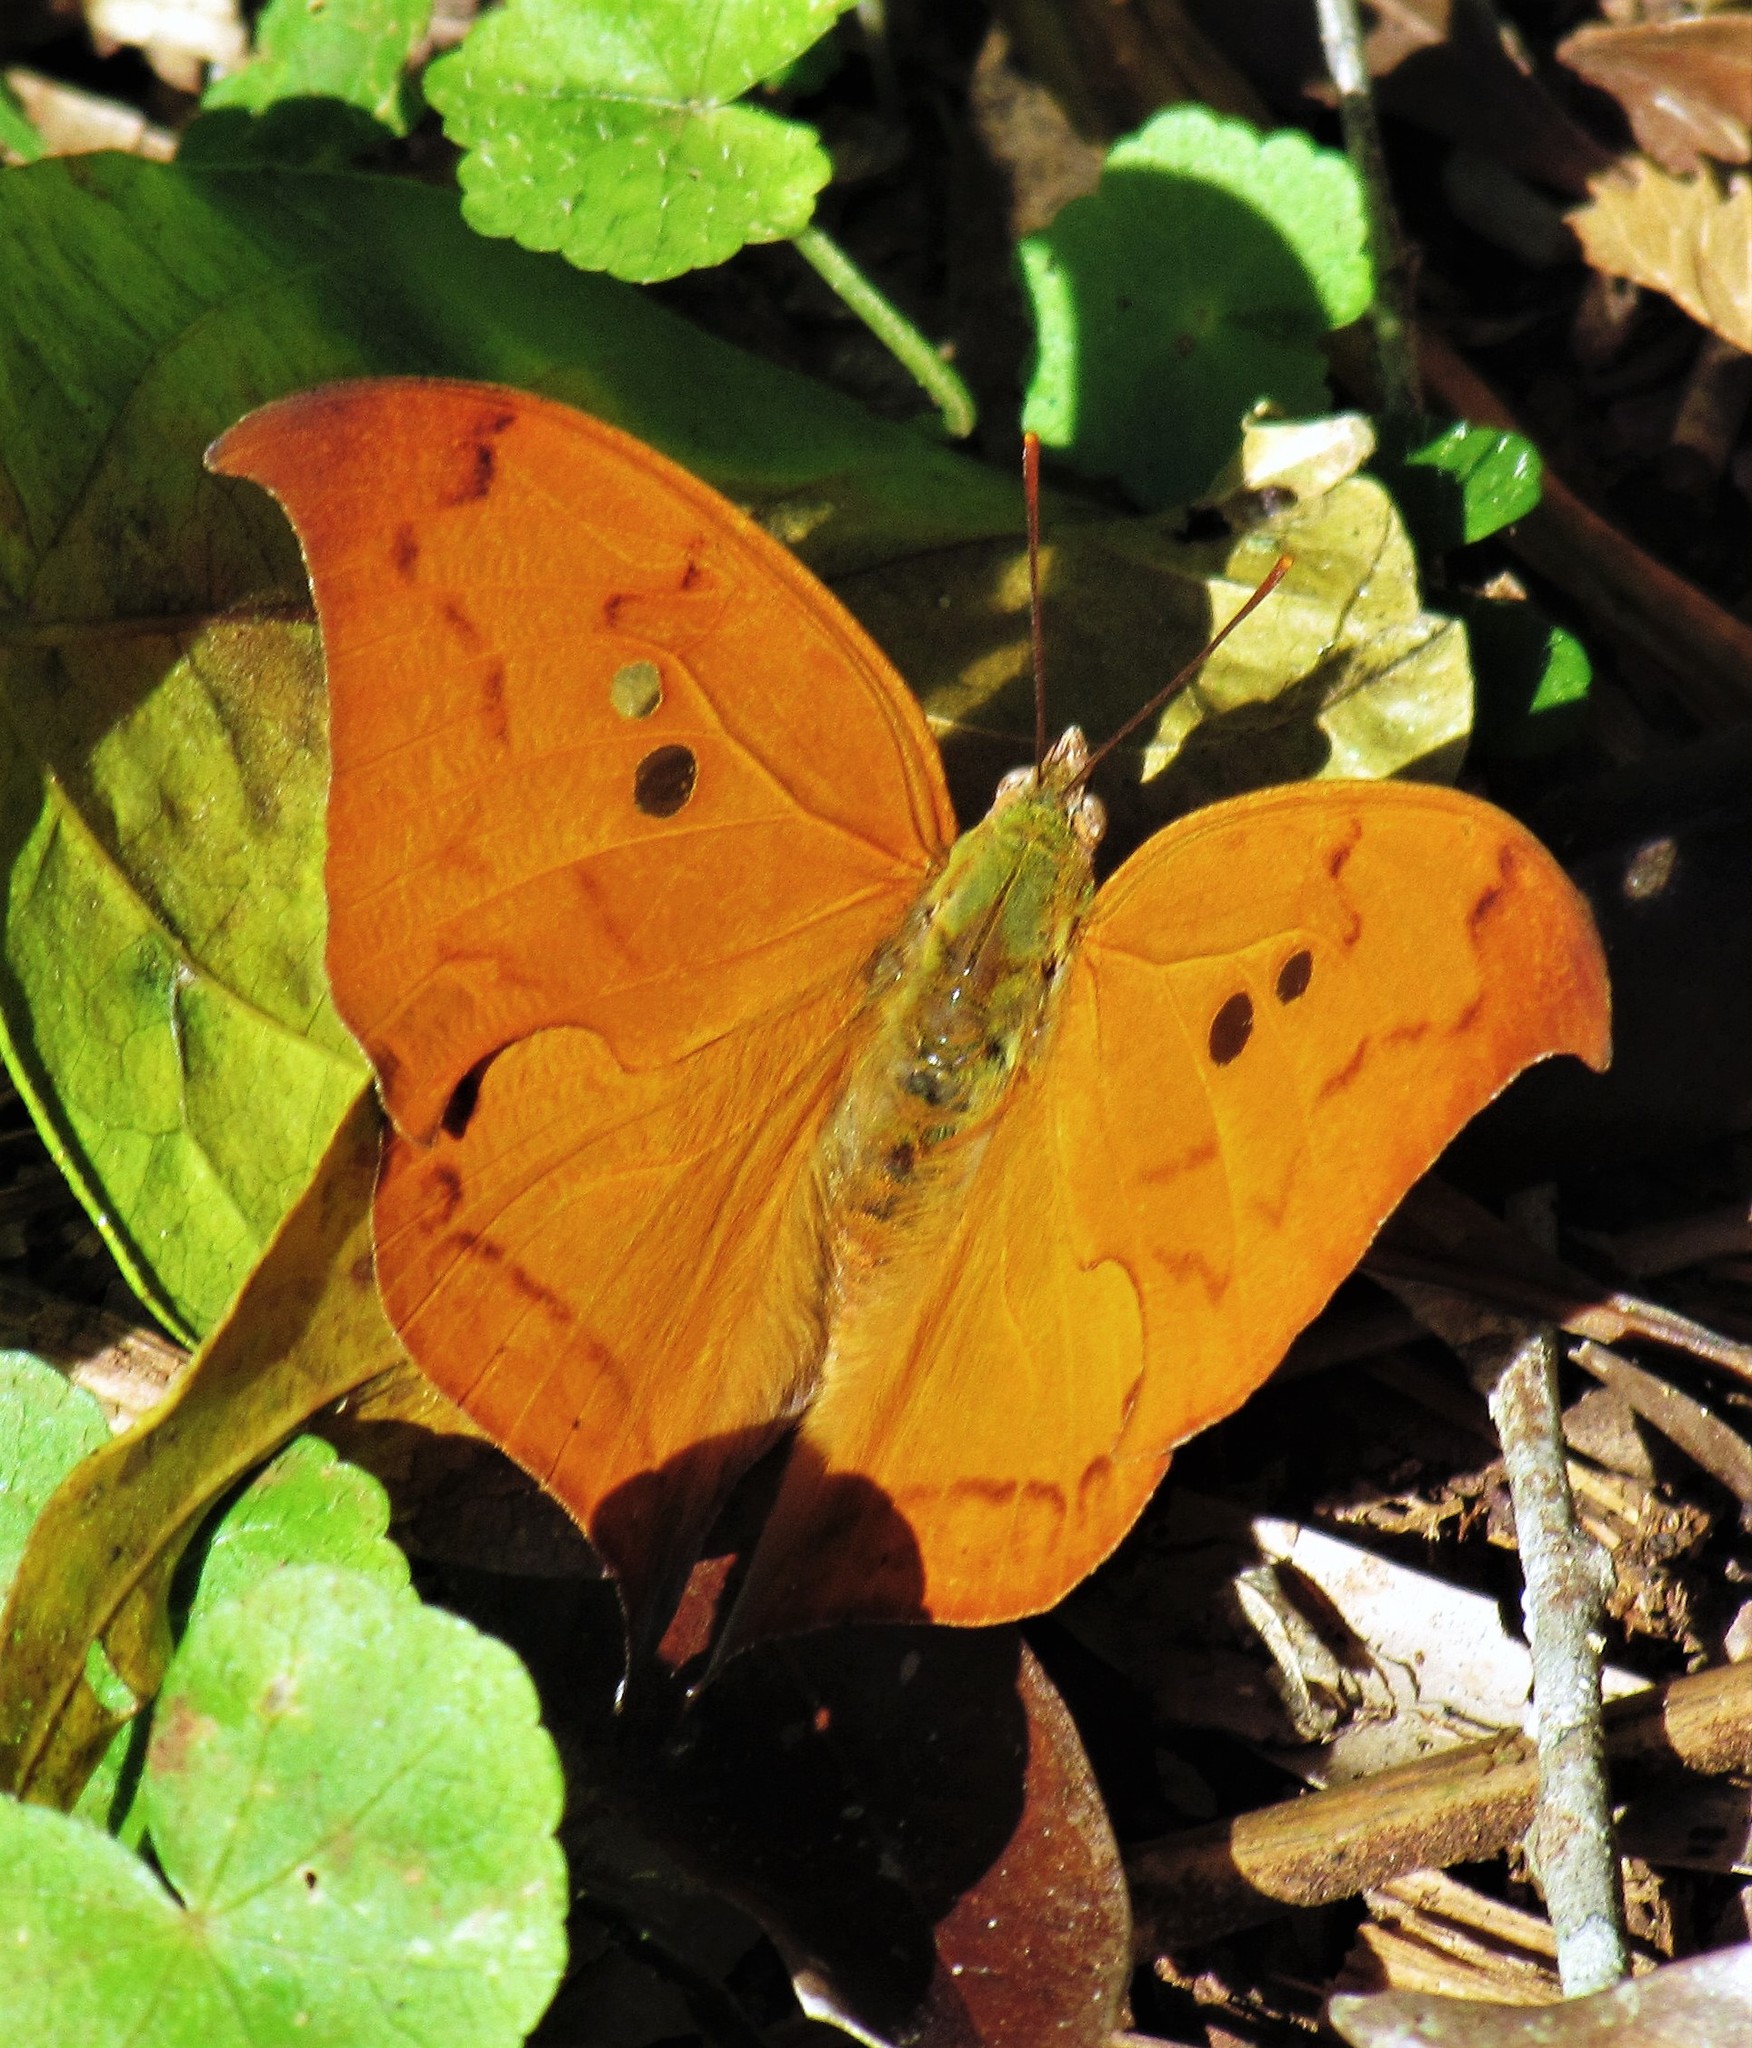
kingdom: Animalia
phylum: Arthropoda
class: Insecta
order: Lepidoptera
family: Nymphalidae
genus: Zaretis
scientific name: Zaretis strigosus
